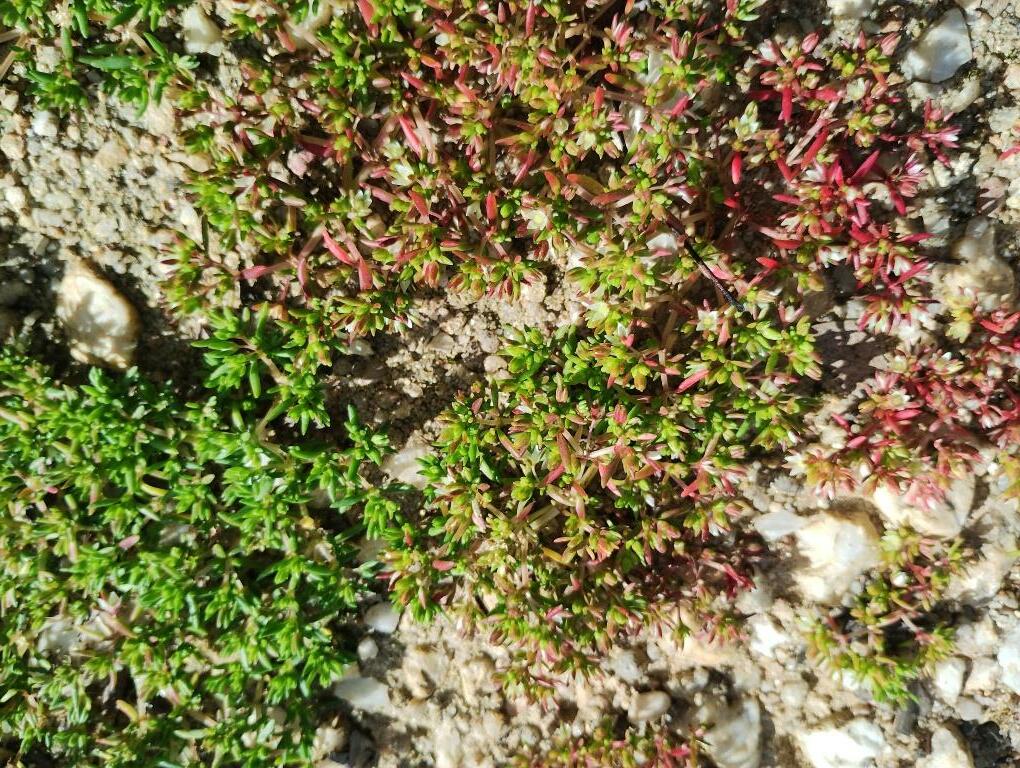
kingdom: Plantae
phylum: Tracheophyta
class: Magnoliopsida
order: Saxifragales
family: Crassulaceae
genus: Crassula
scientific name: Crassula decumbens
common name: Scilly pigmyweed
